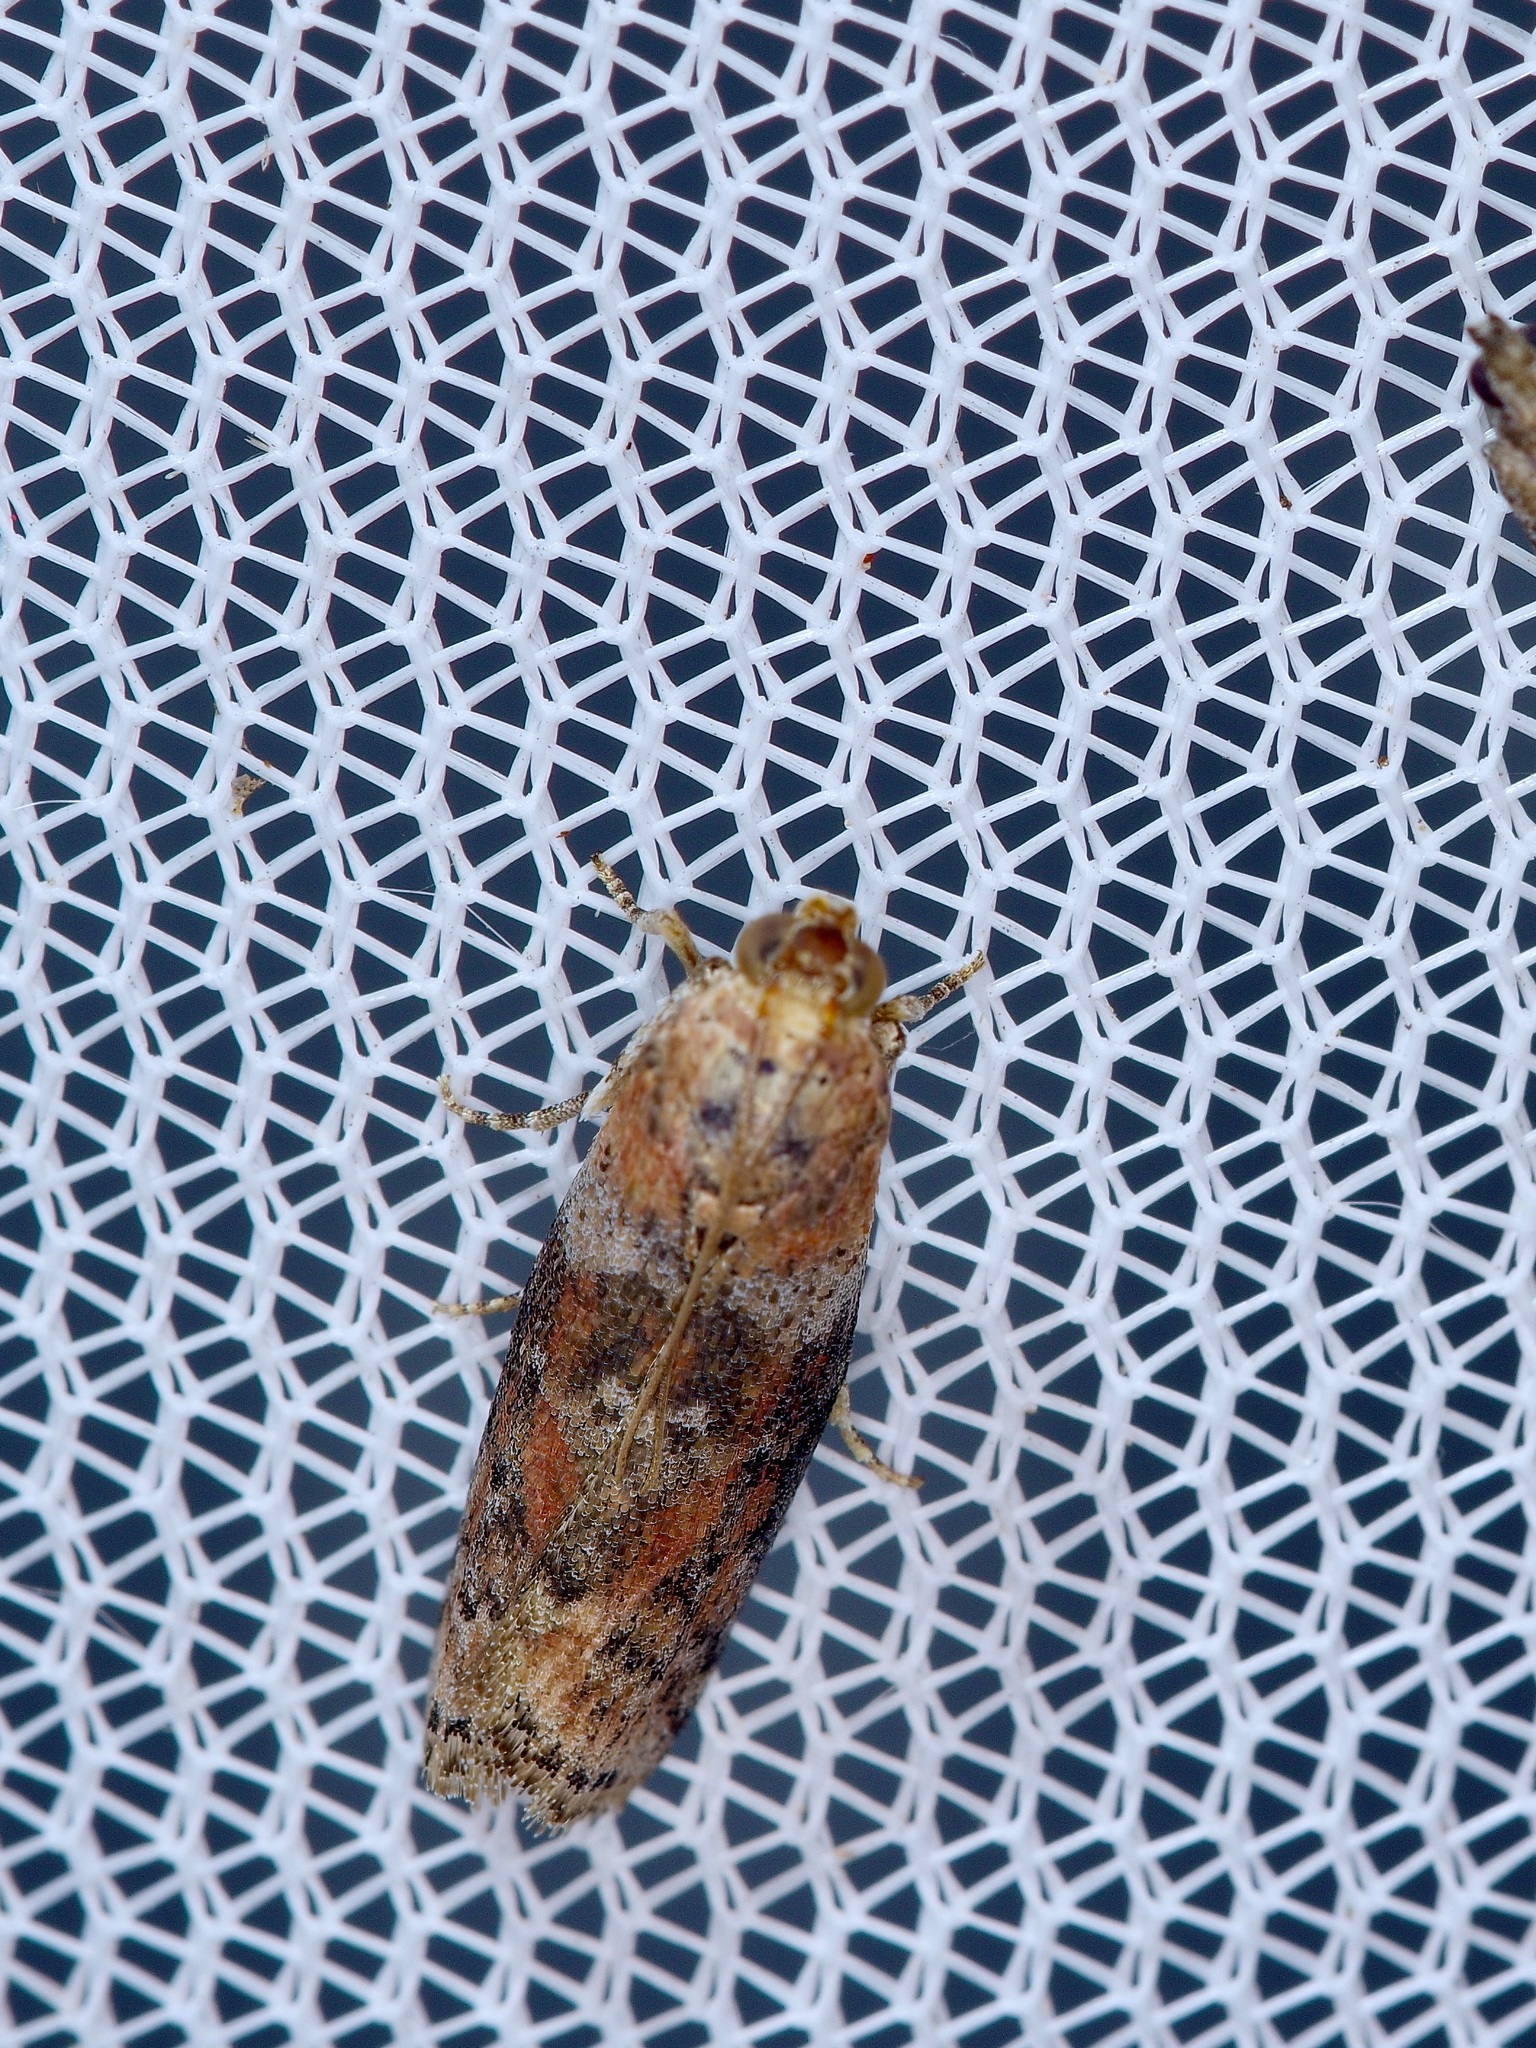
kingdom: Animalia
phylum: Arthropoda
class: Insecta
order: Lepidoptera
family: Pyralidae
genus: Sciota
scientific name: Sciota celtidella
